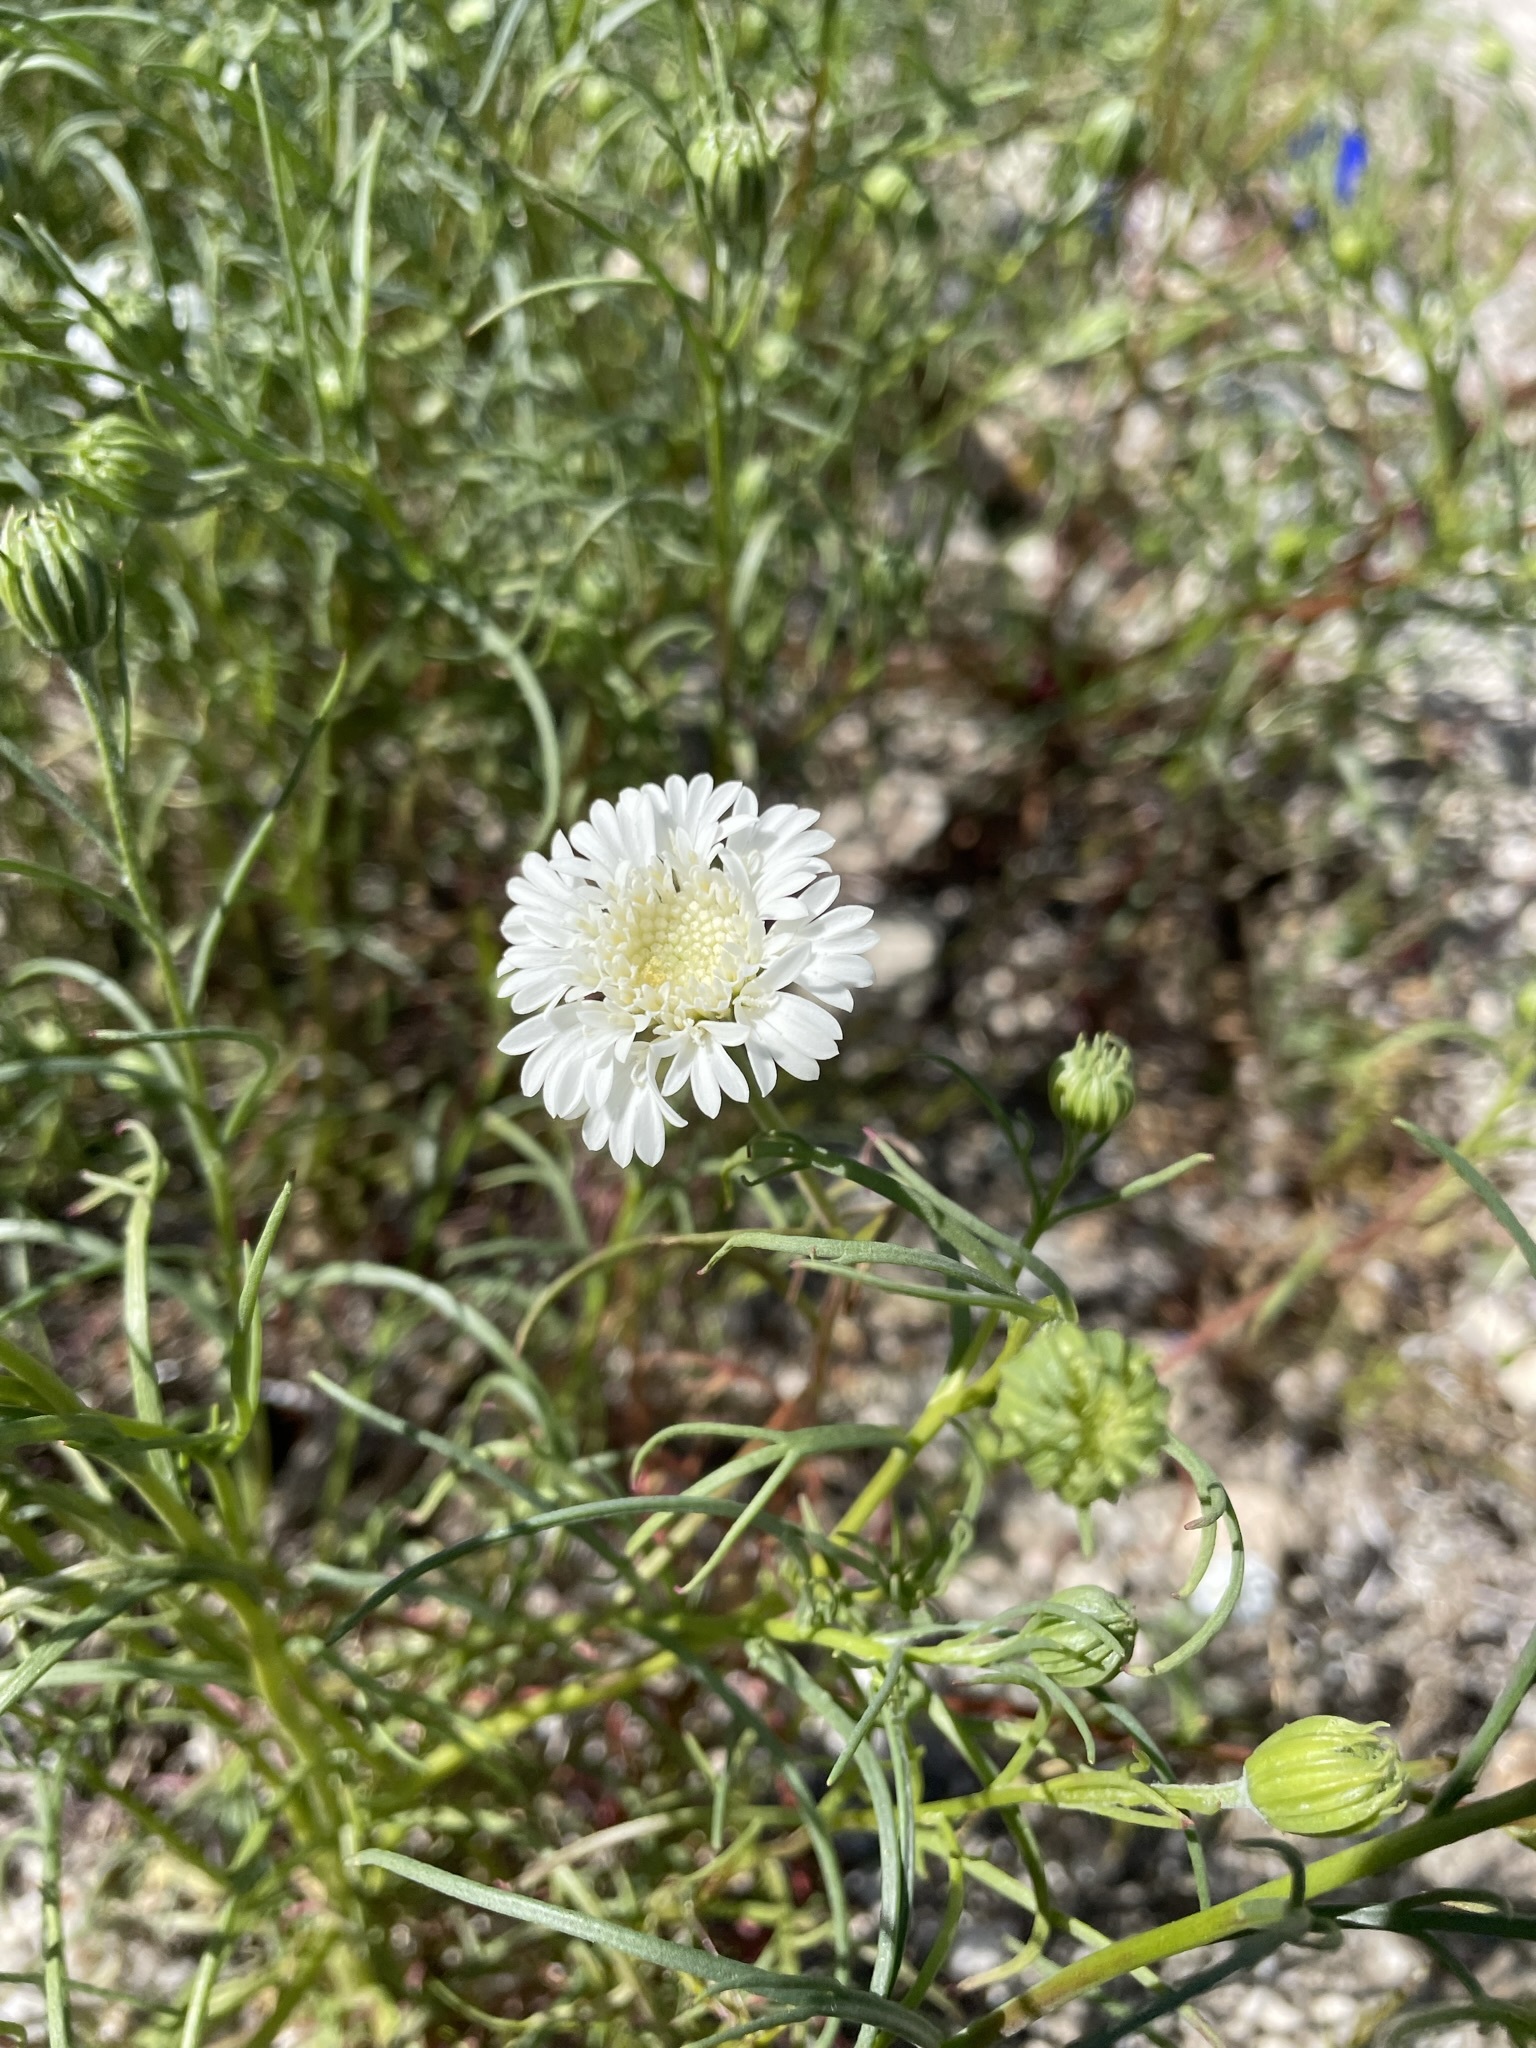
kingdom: Plantae
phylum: Tracheophyta
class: Magnoliopsida
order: Asterales
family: Asteraceae
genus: Chaenactis
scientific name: Chaenactis fremontii
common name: Fremont pincushion
